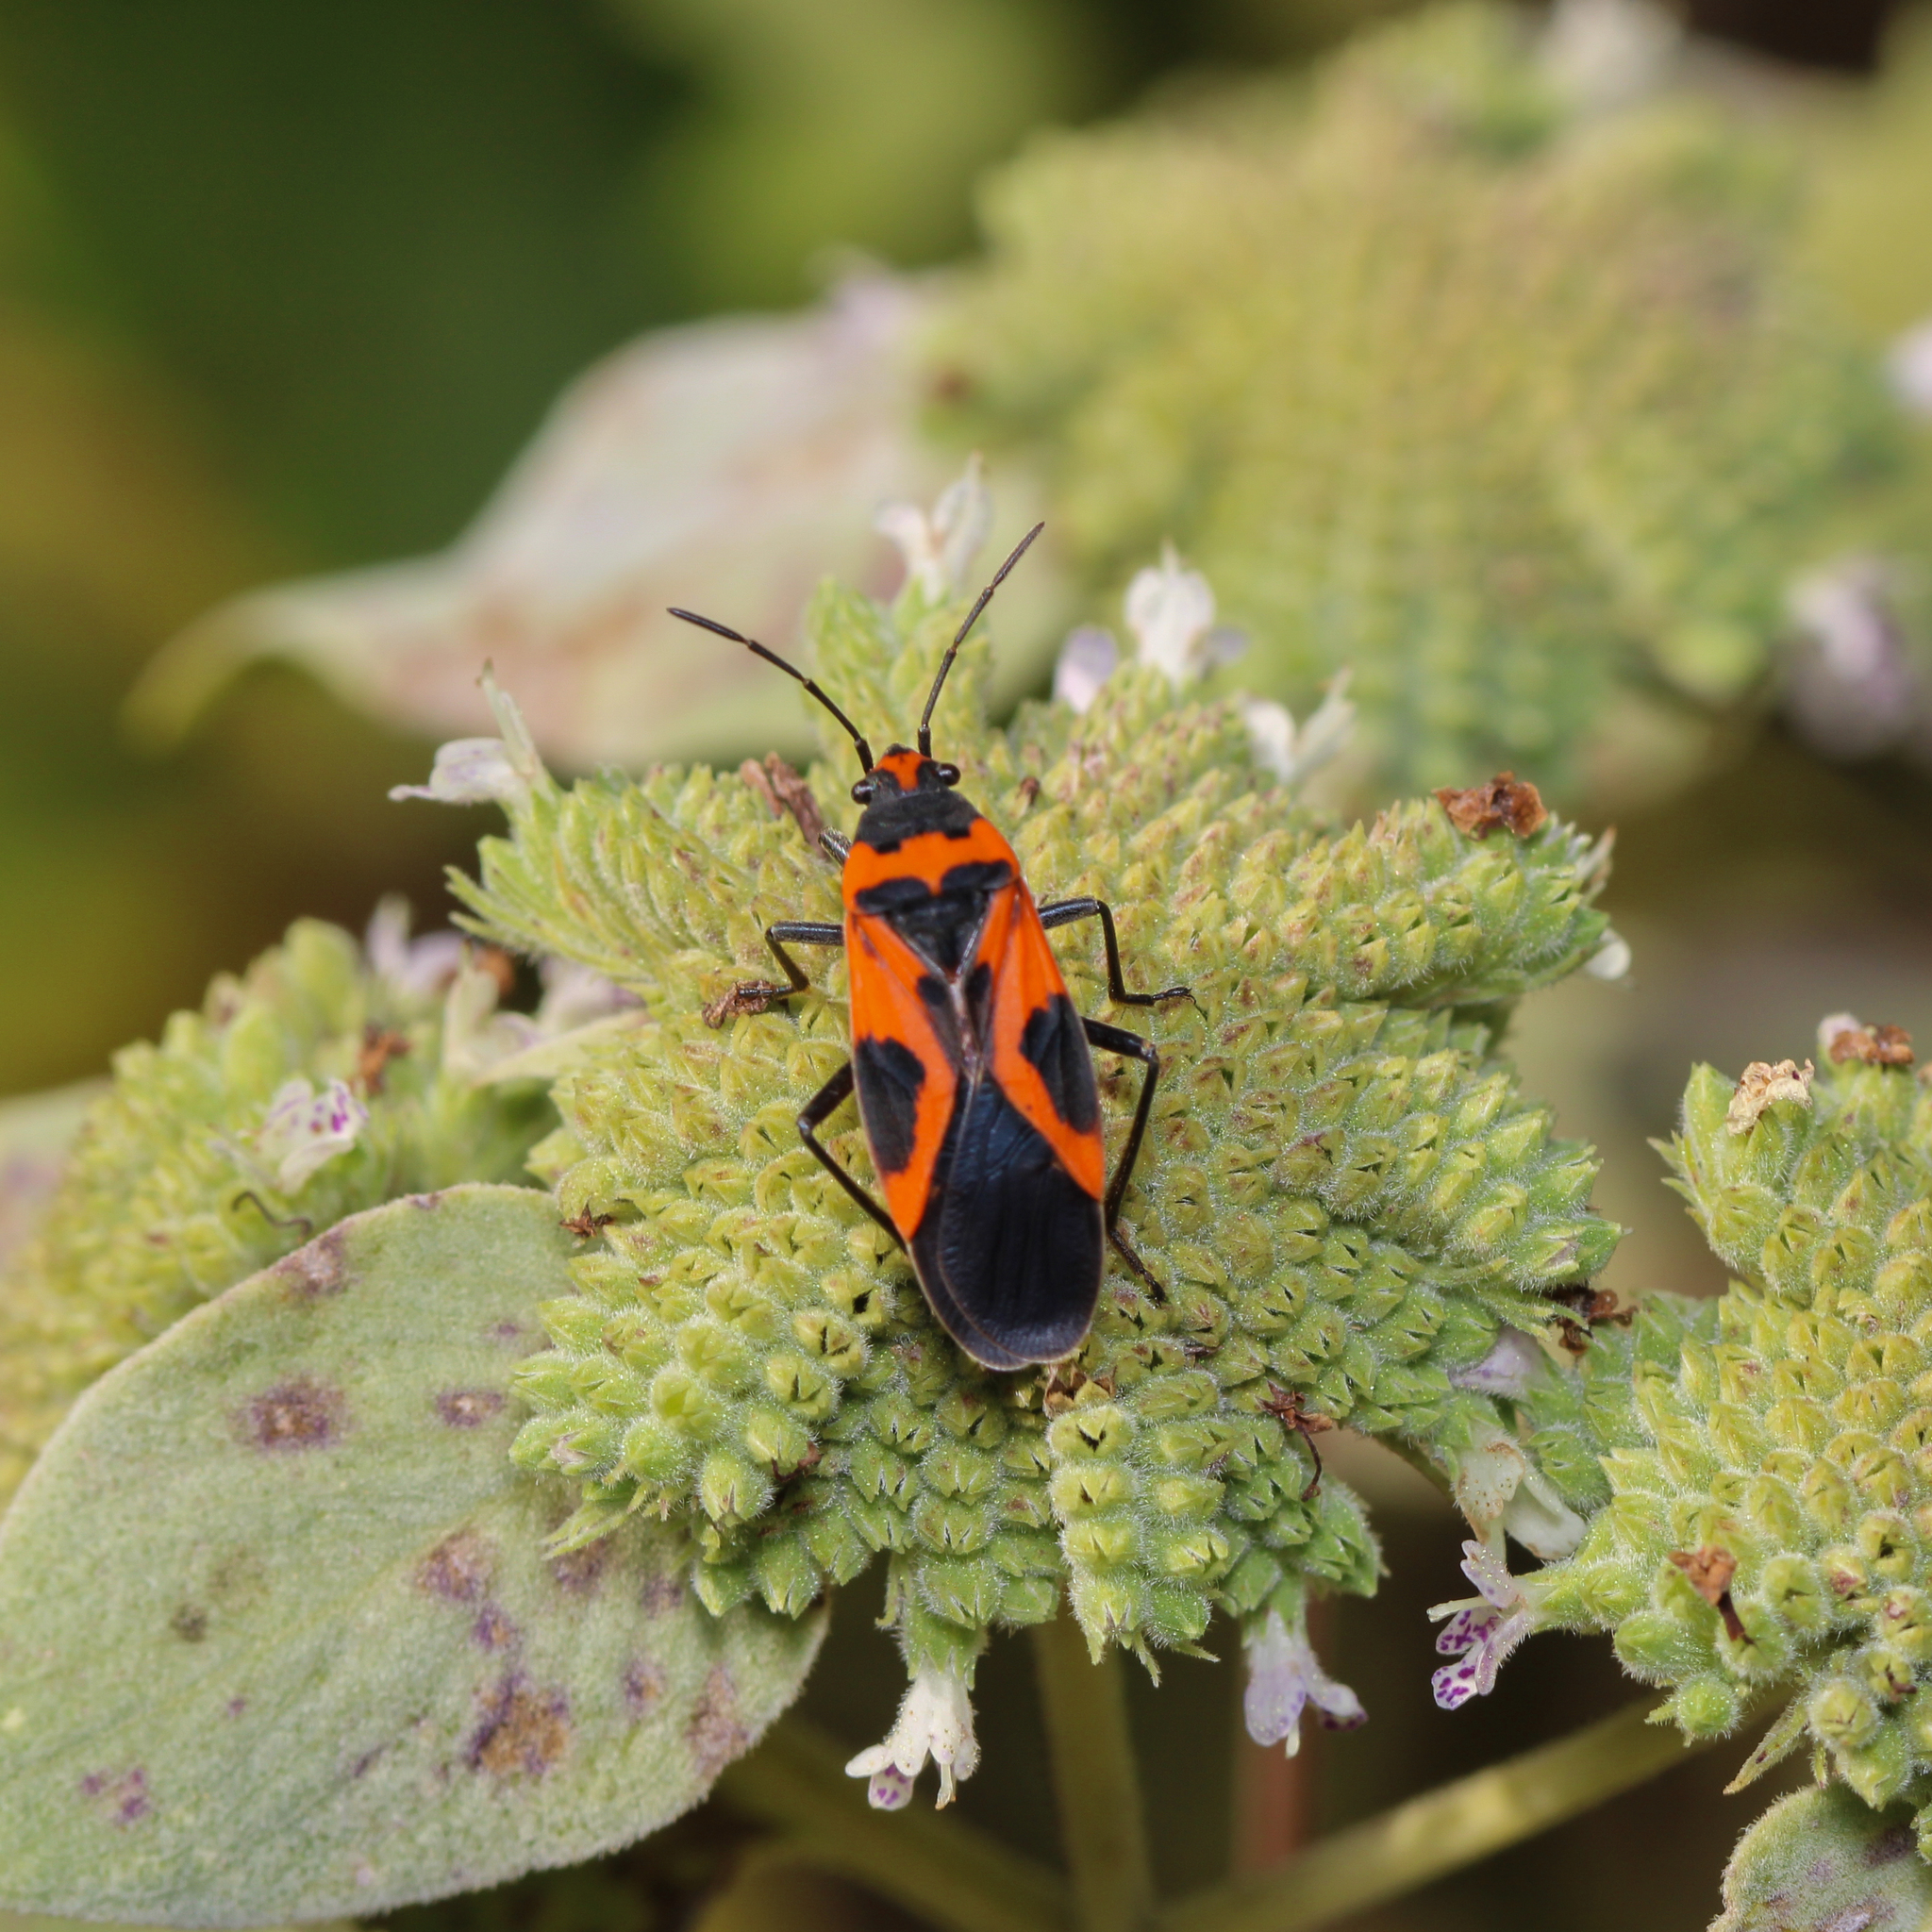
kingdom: Animalia
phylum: Arthropoda
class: Insecta
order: Hemiptera
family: Lygaeidae
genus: Lygaeus
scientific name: Lygaeus turcicus
